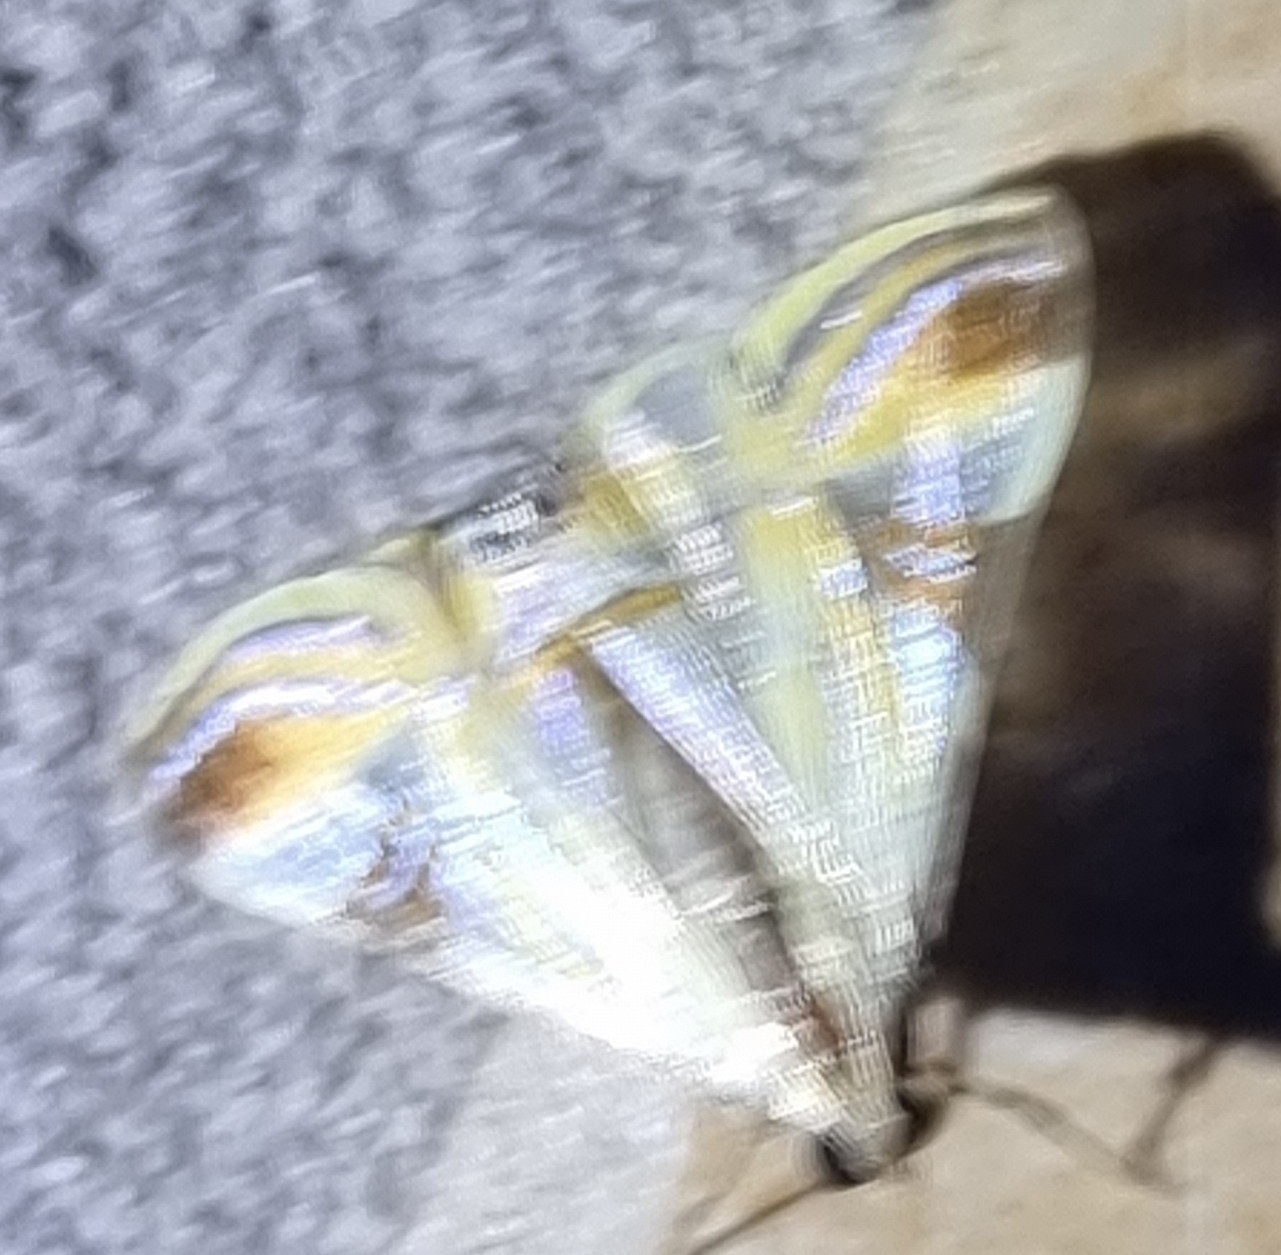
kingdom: Animalia
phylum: Arthropoda
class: Insecta
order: Lepidoptera
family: Crambidae
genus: Talanga
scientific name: Talanga tolumnialis
